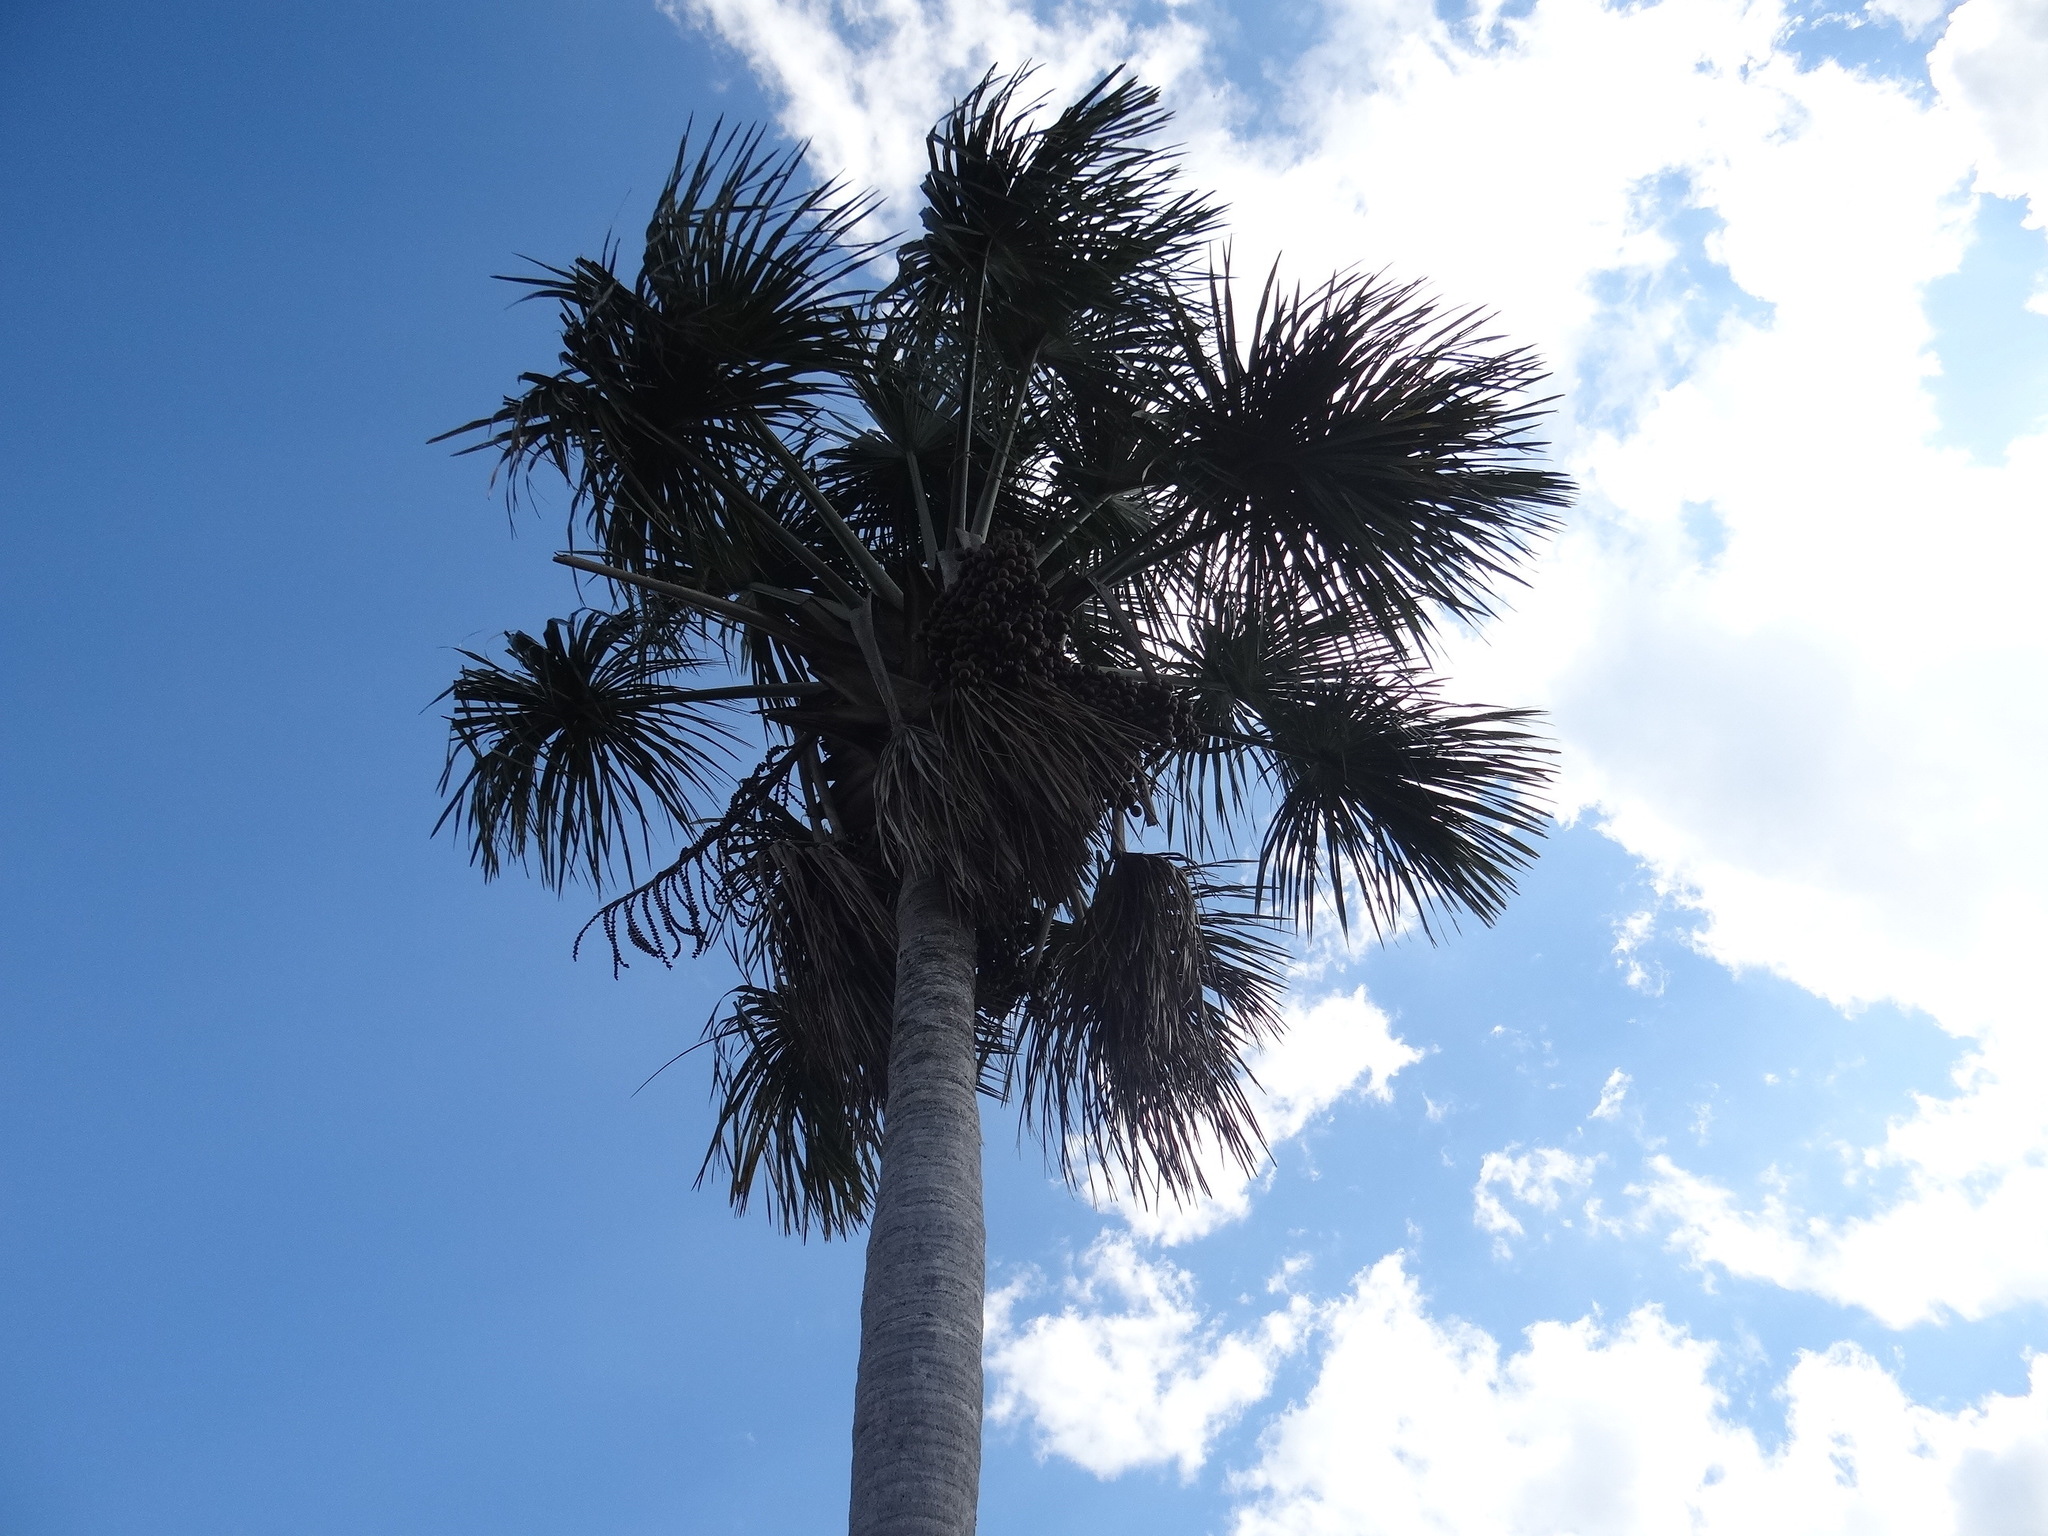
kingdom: Plantae
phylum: Tracheophyta
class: Liliopsida
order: Arecales
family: Arecaceae
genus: Mauritia
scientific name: Mauritia flexuosa
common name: Tree-of-life
